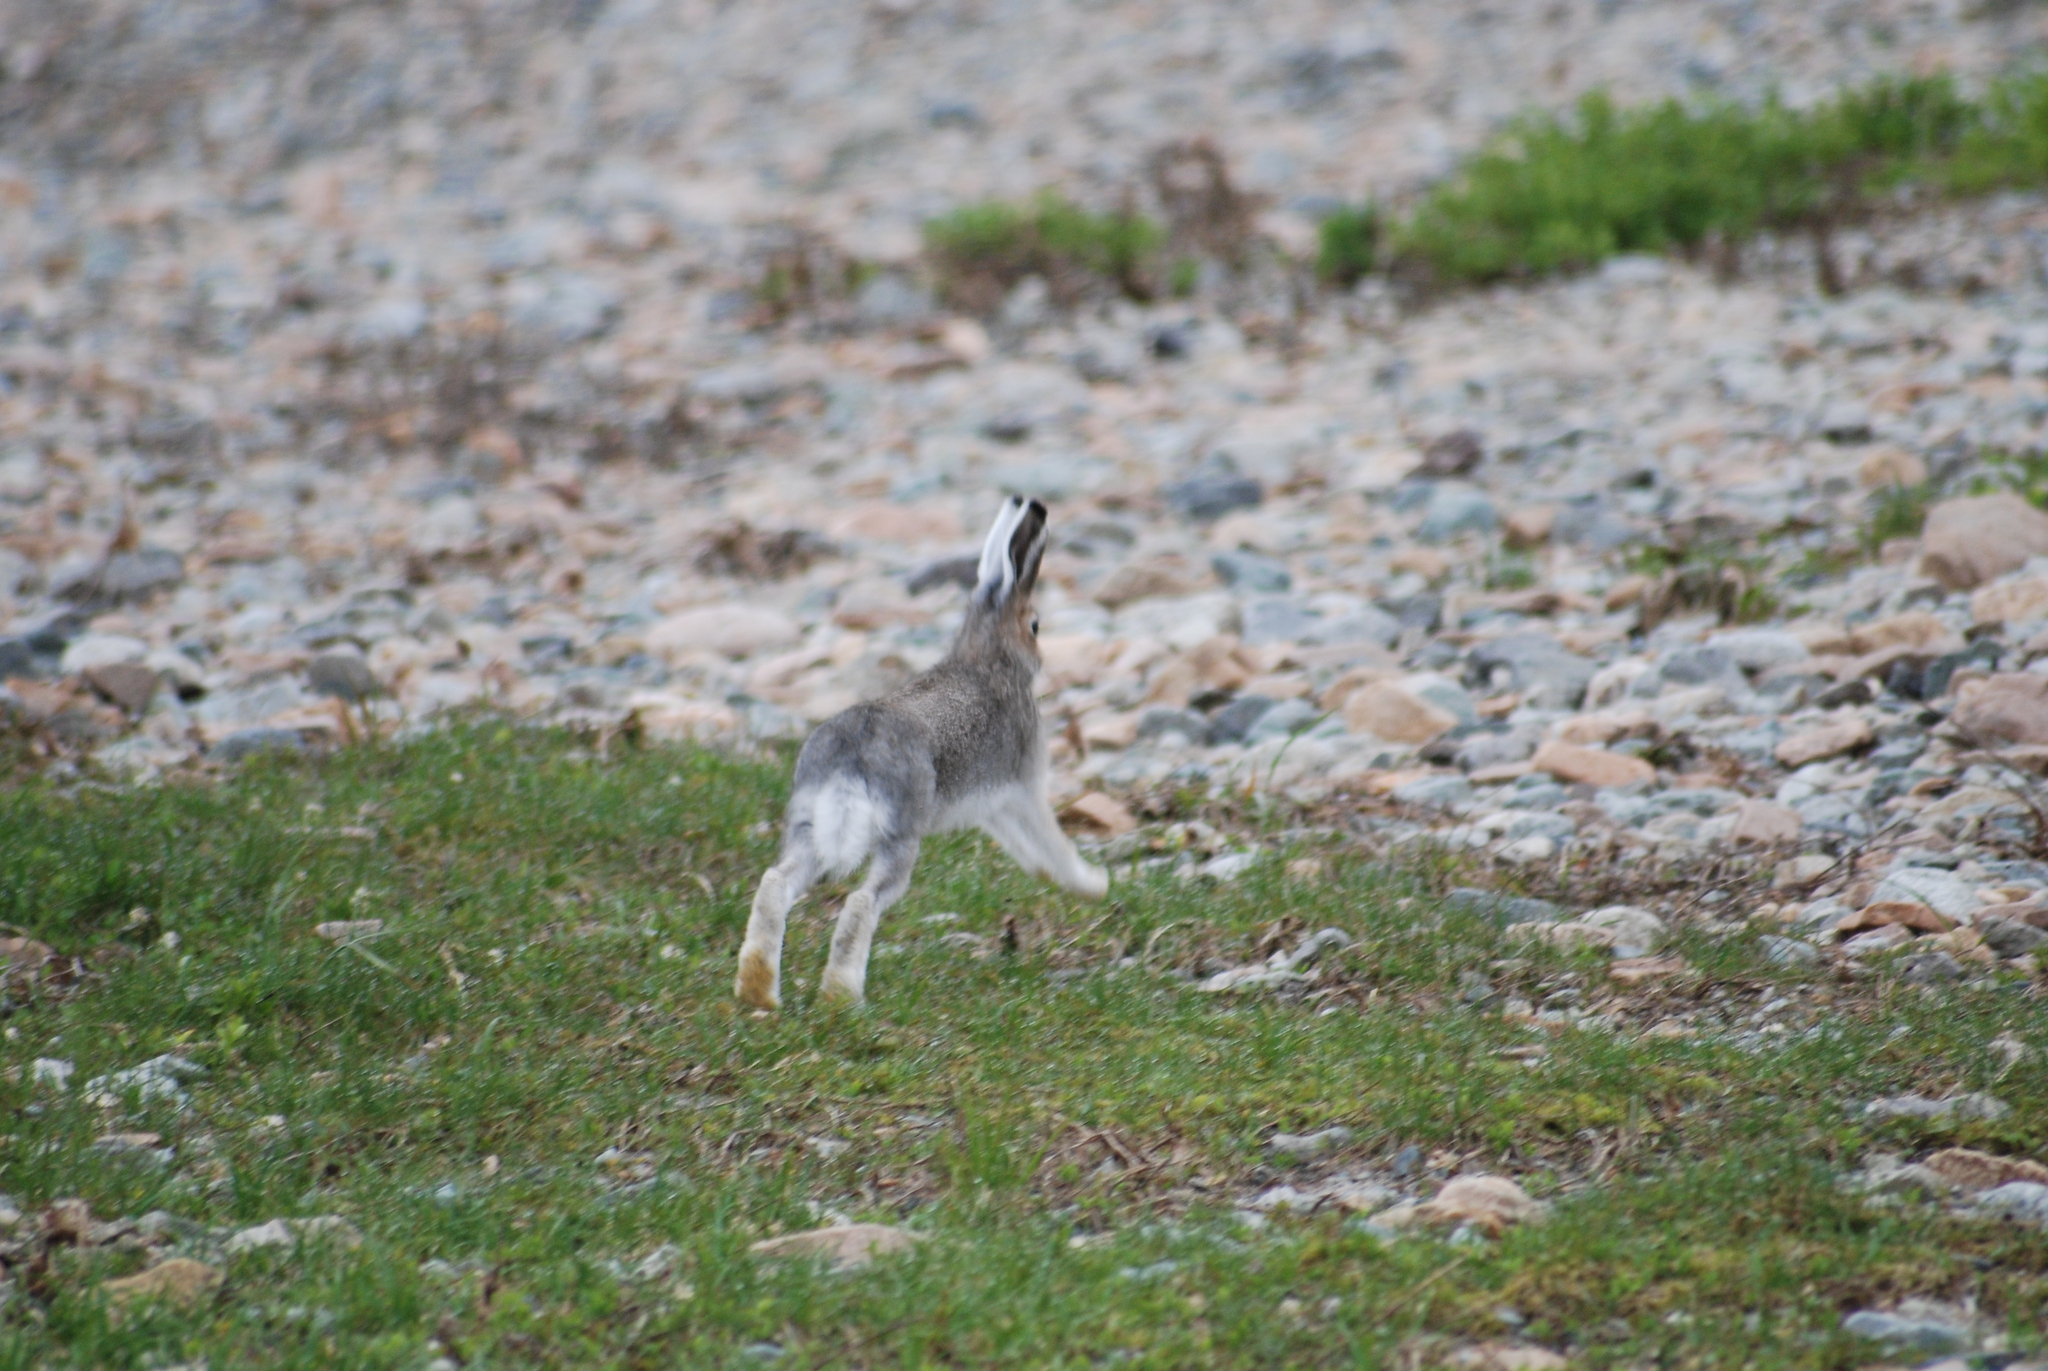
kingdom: Animalia
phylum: Chordata
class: Mammalia
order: Lagomorpha
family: Leporidae
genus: Lepus
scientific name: Lepus timidus
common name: Mountain hare
